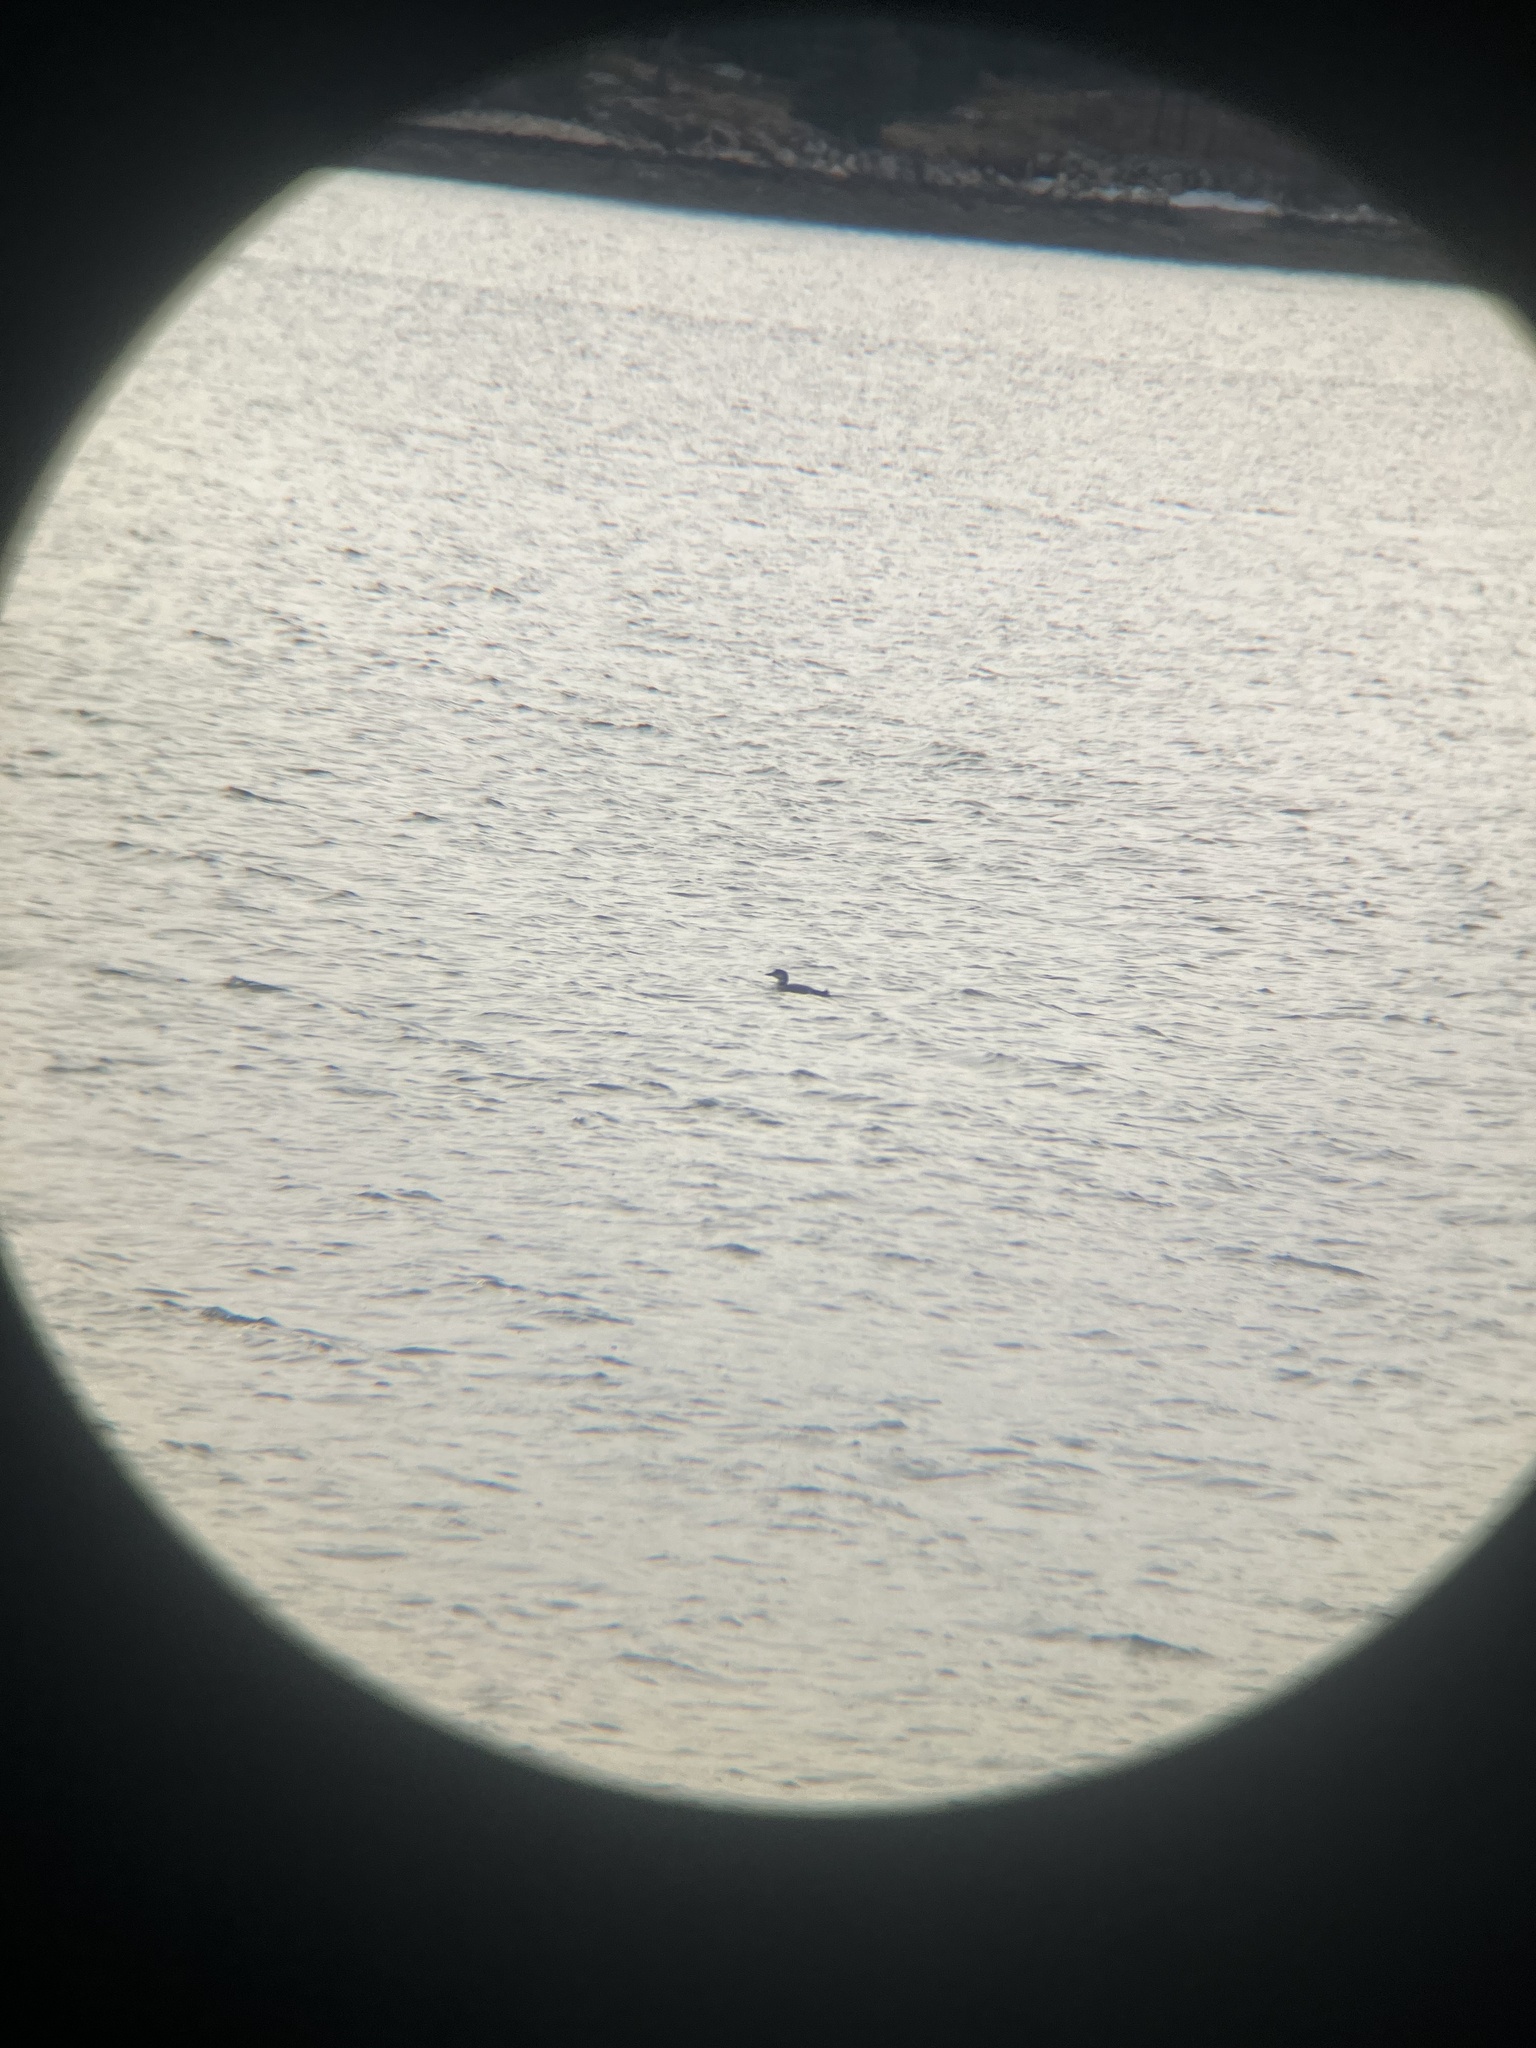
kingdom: Animalia
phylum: Chordata
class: Aves
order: Gaviiformes
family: Gaviidae
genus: Gavia
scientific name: Gavia immer
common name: Common loon
